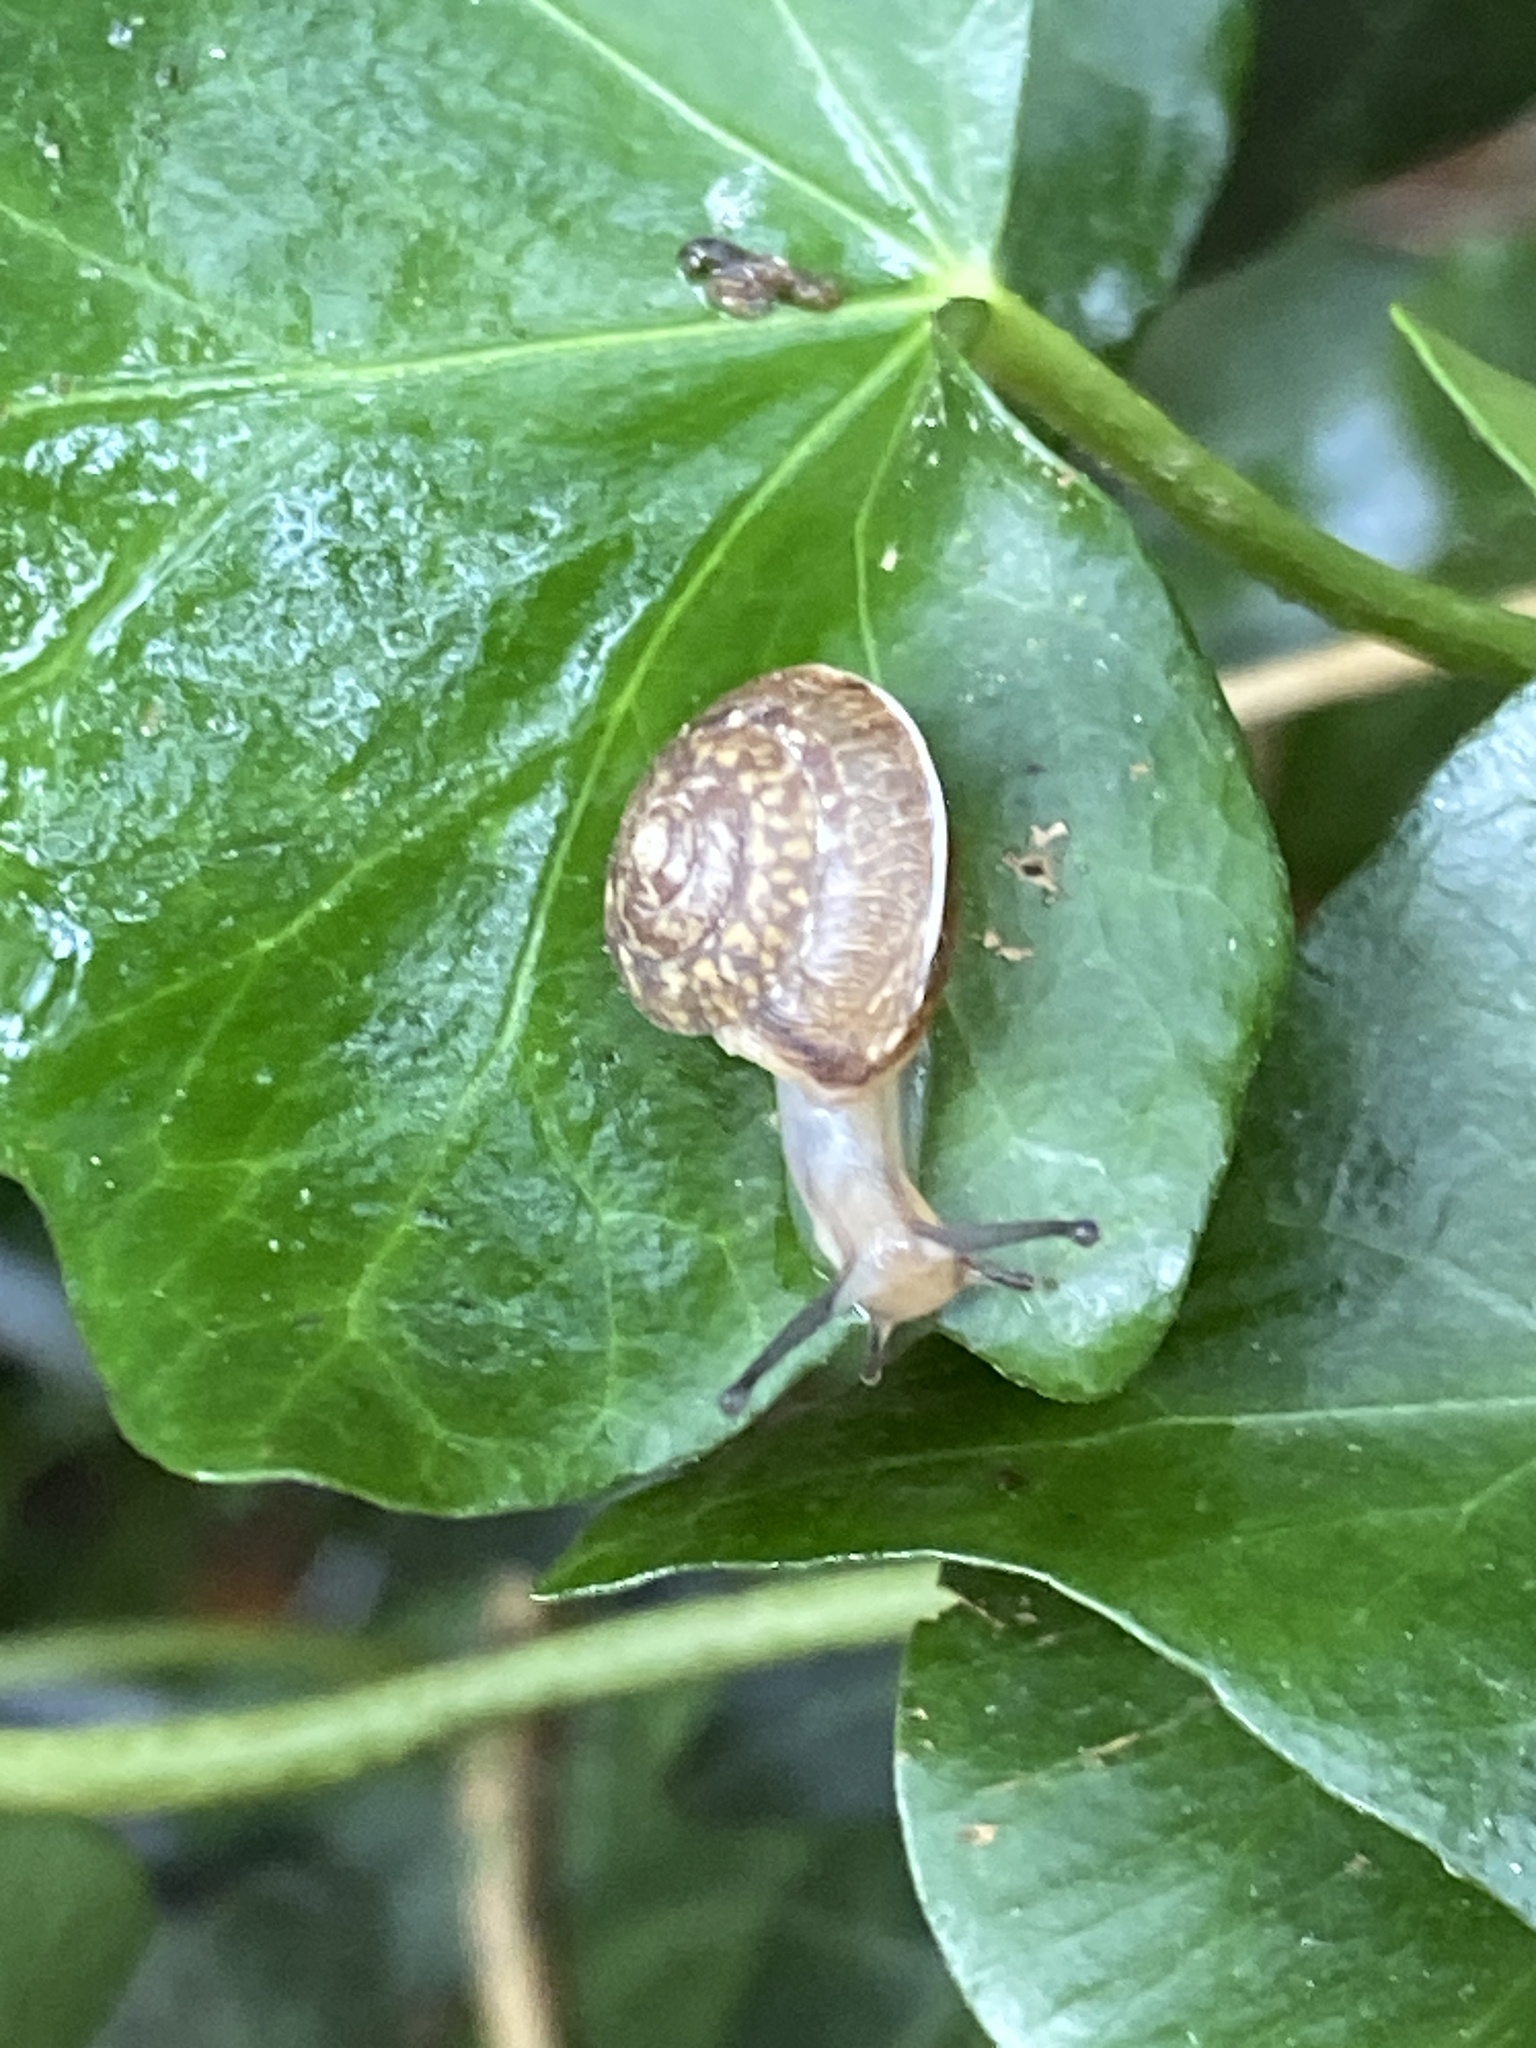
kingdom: Animalia
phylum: Mollusca
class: Gastropoda
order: Stylommatophora
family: Hygromiidae
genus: Hygromia
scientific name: Hygromia cinctella
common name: Girdled snail
